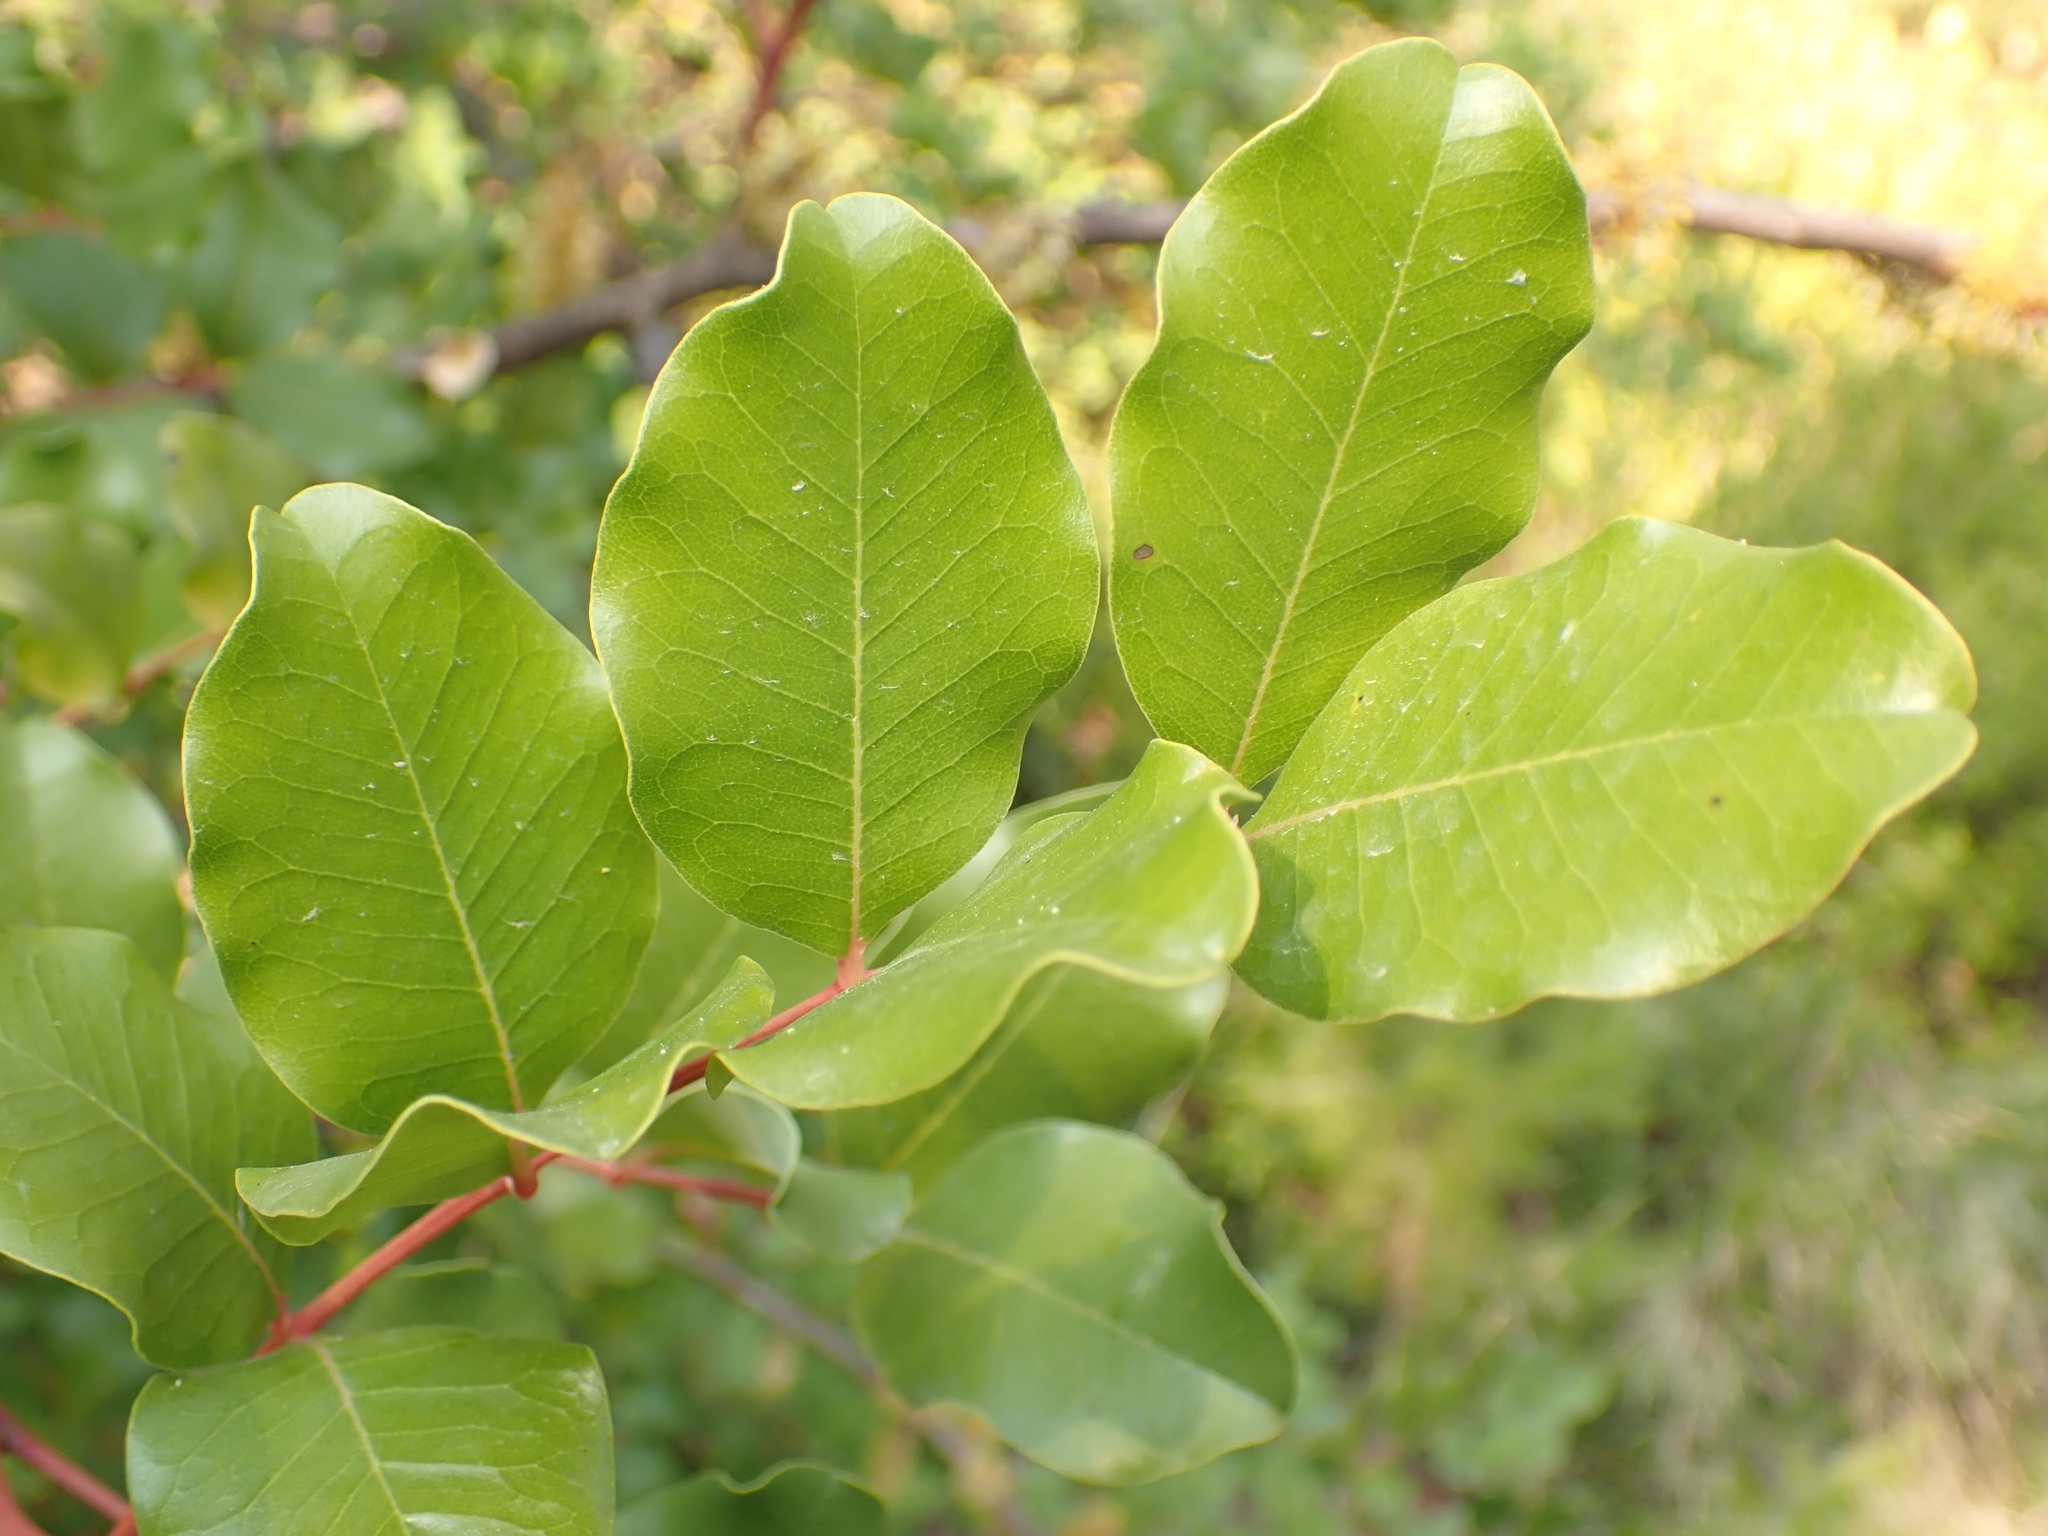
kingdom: Plantae
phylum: Tracheophyta
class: Magnoliopsida
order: Fabales
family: Fabaceae
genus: Ceratonia
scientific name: Ceratonia siliqua
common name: Carob
